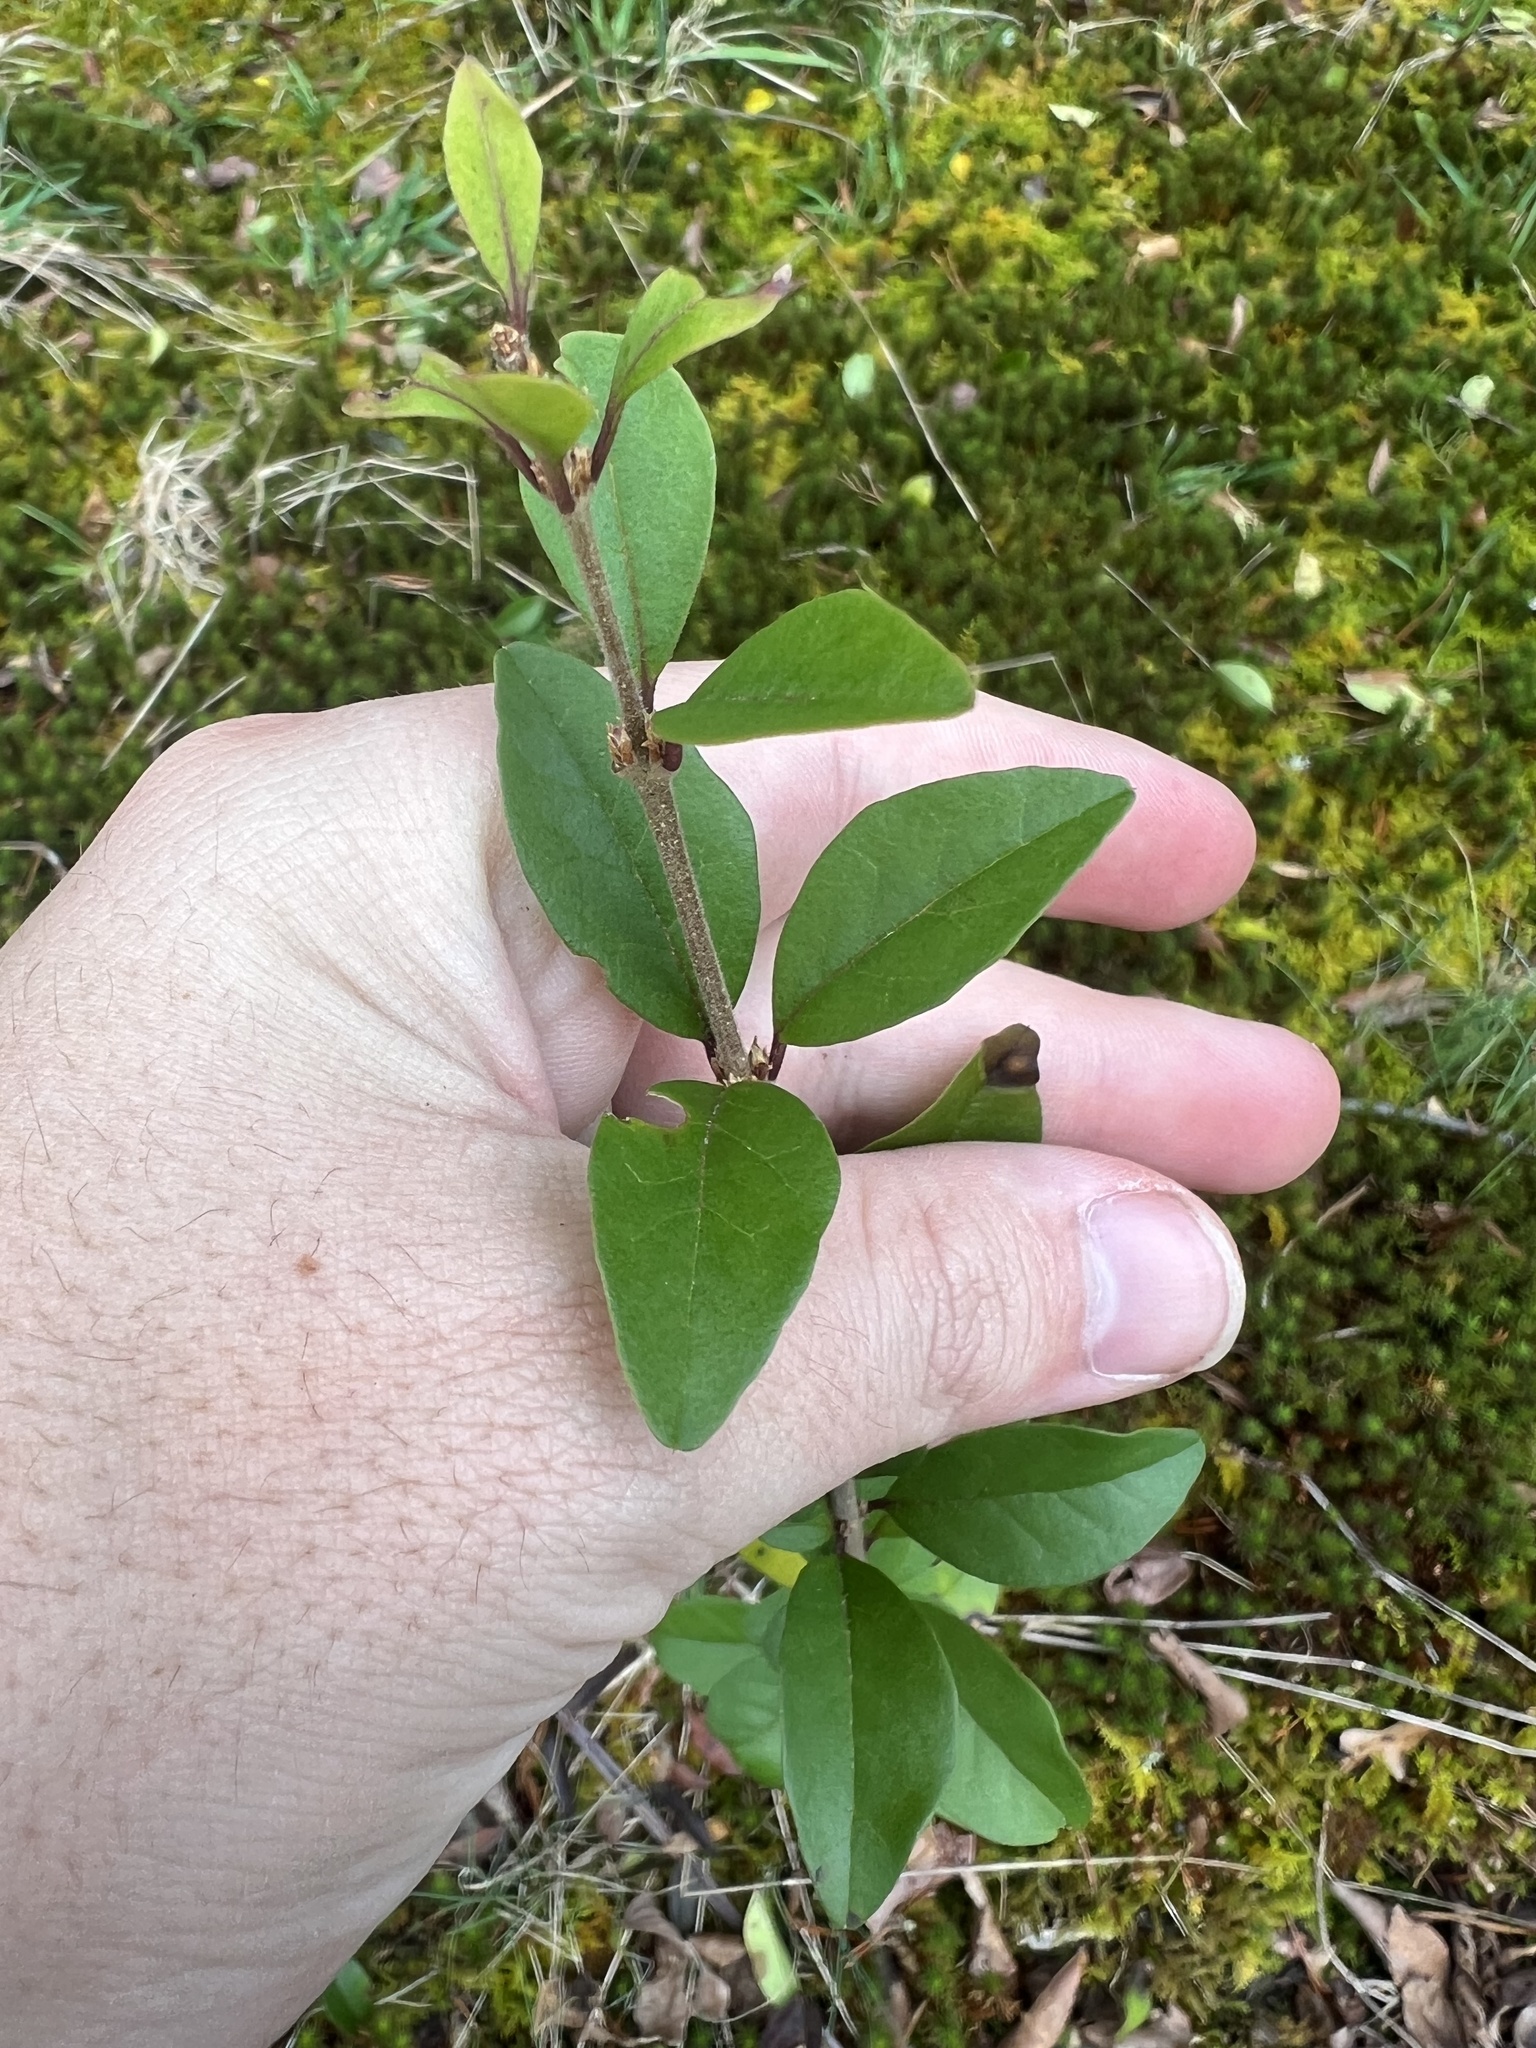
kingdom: Plantae
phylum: Tracheophyta
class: Magnoliopsida
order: Dipsacales
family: Caprifoliaceae
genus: Lonicera
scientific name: Lonicera fragrantissima
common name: Fragrant honeysuckle
